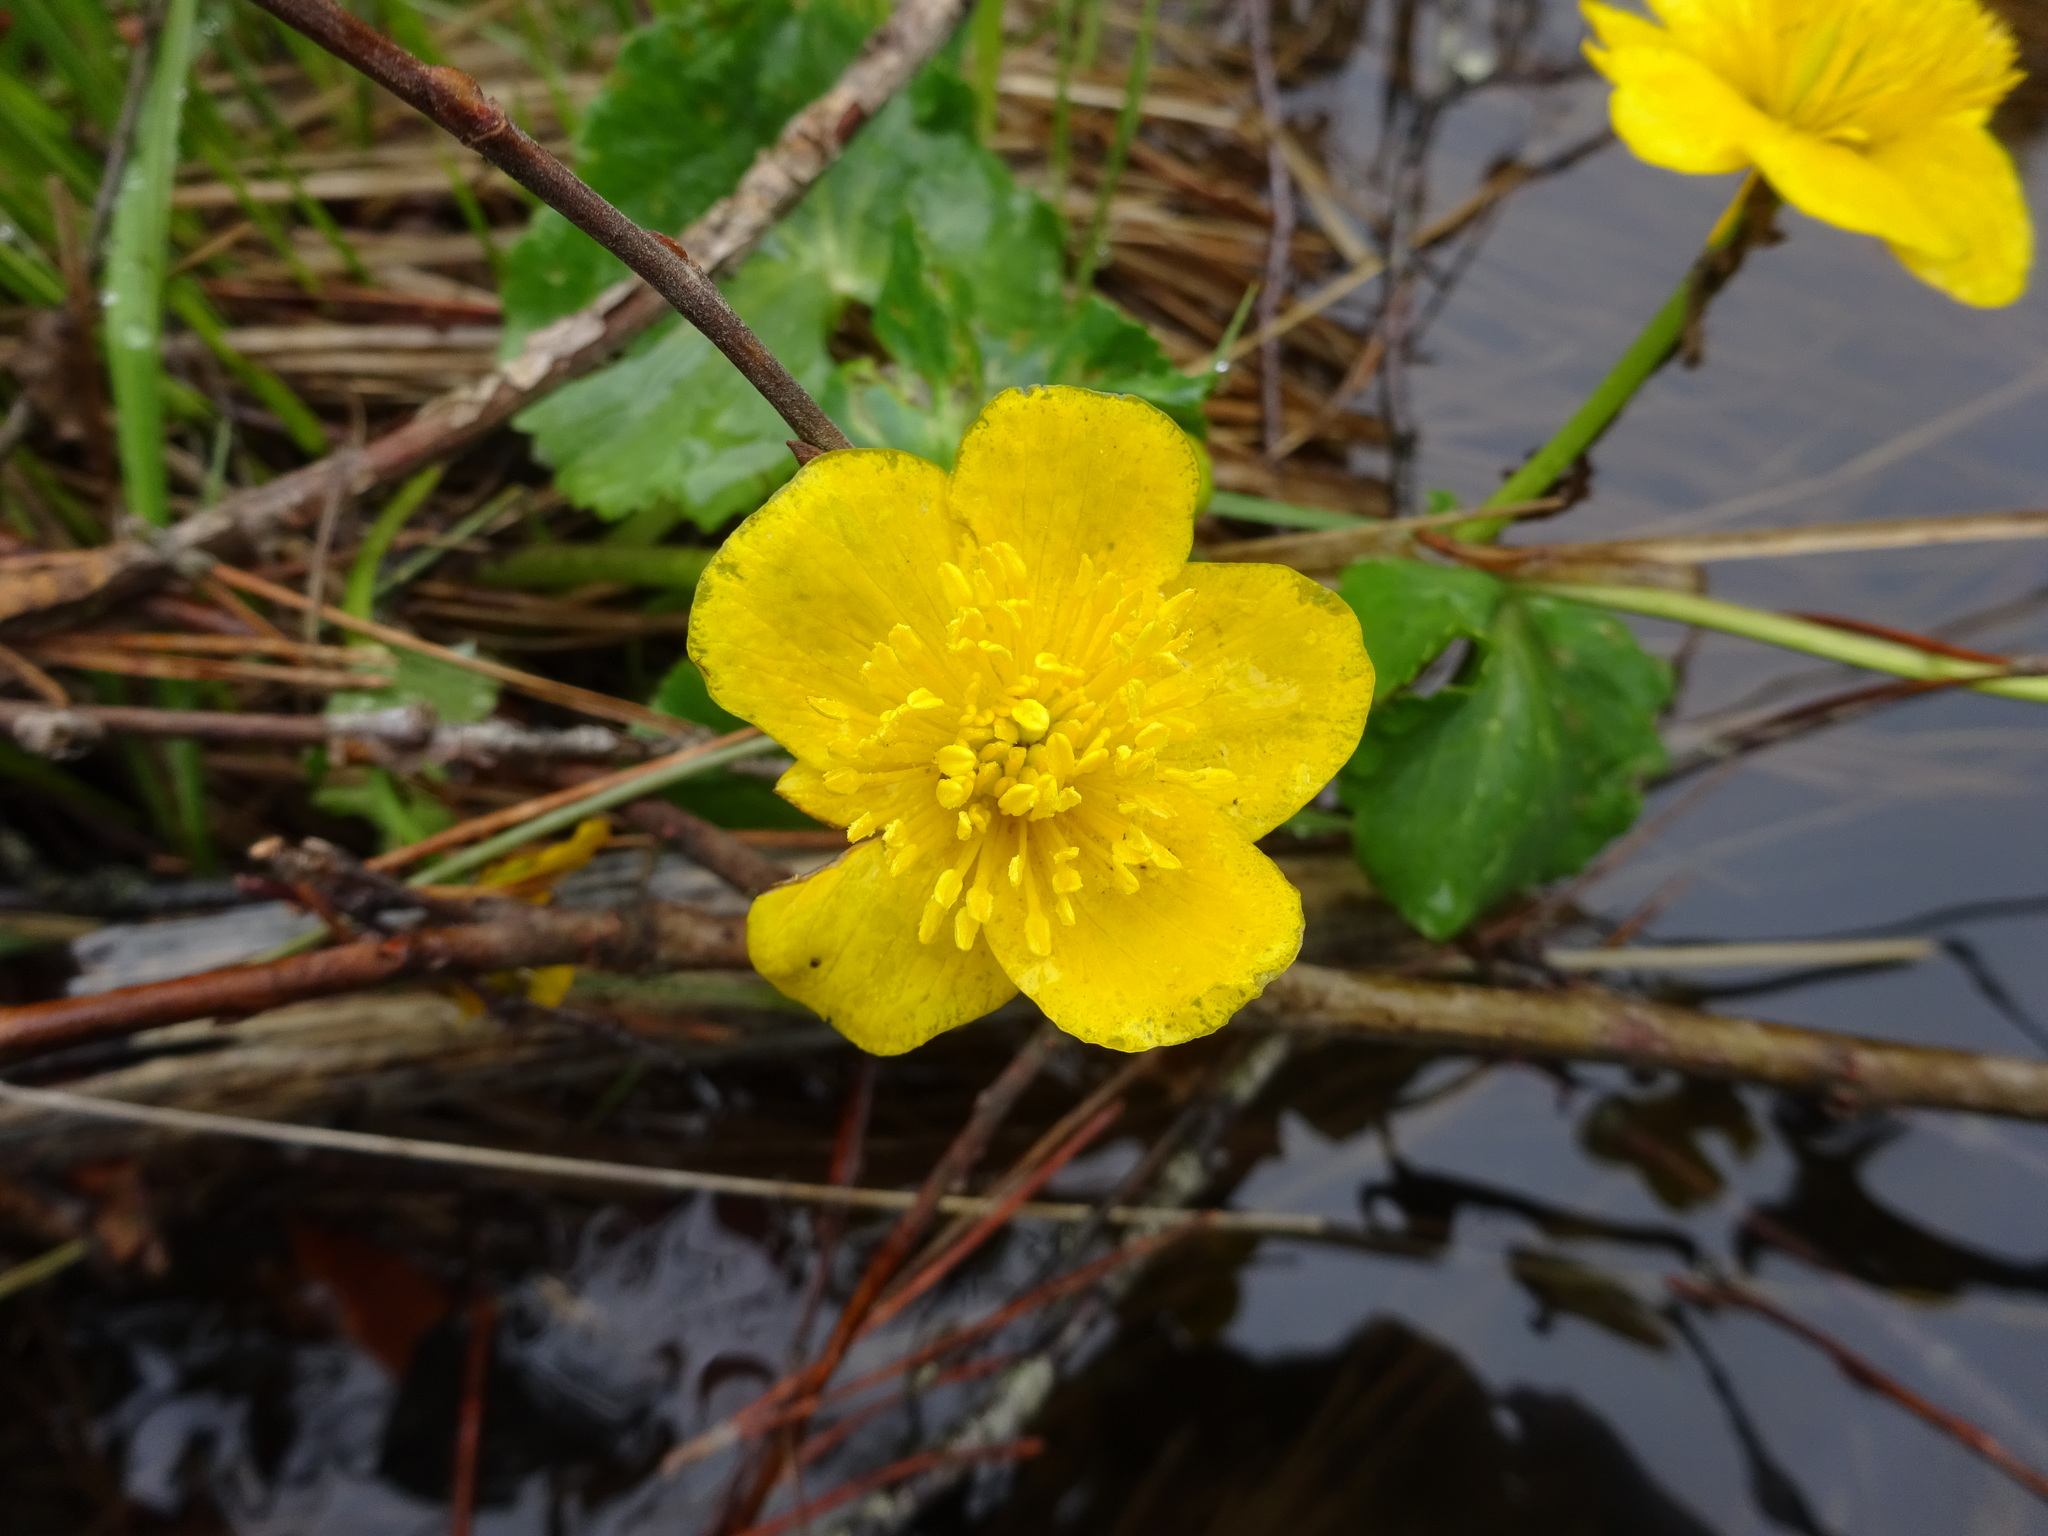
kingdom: Plantae
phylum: Tracheophyta
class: Magnoliopsida
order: Ranunculales
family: Ranunculaceae
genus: Caltha
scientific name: Caltha palustris
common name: Marsh marigold
